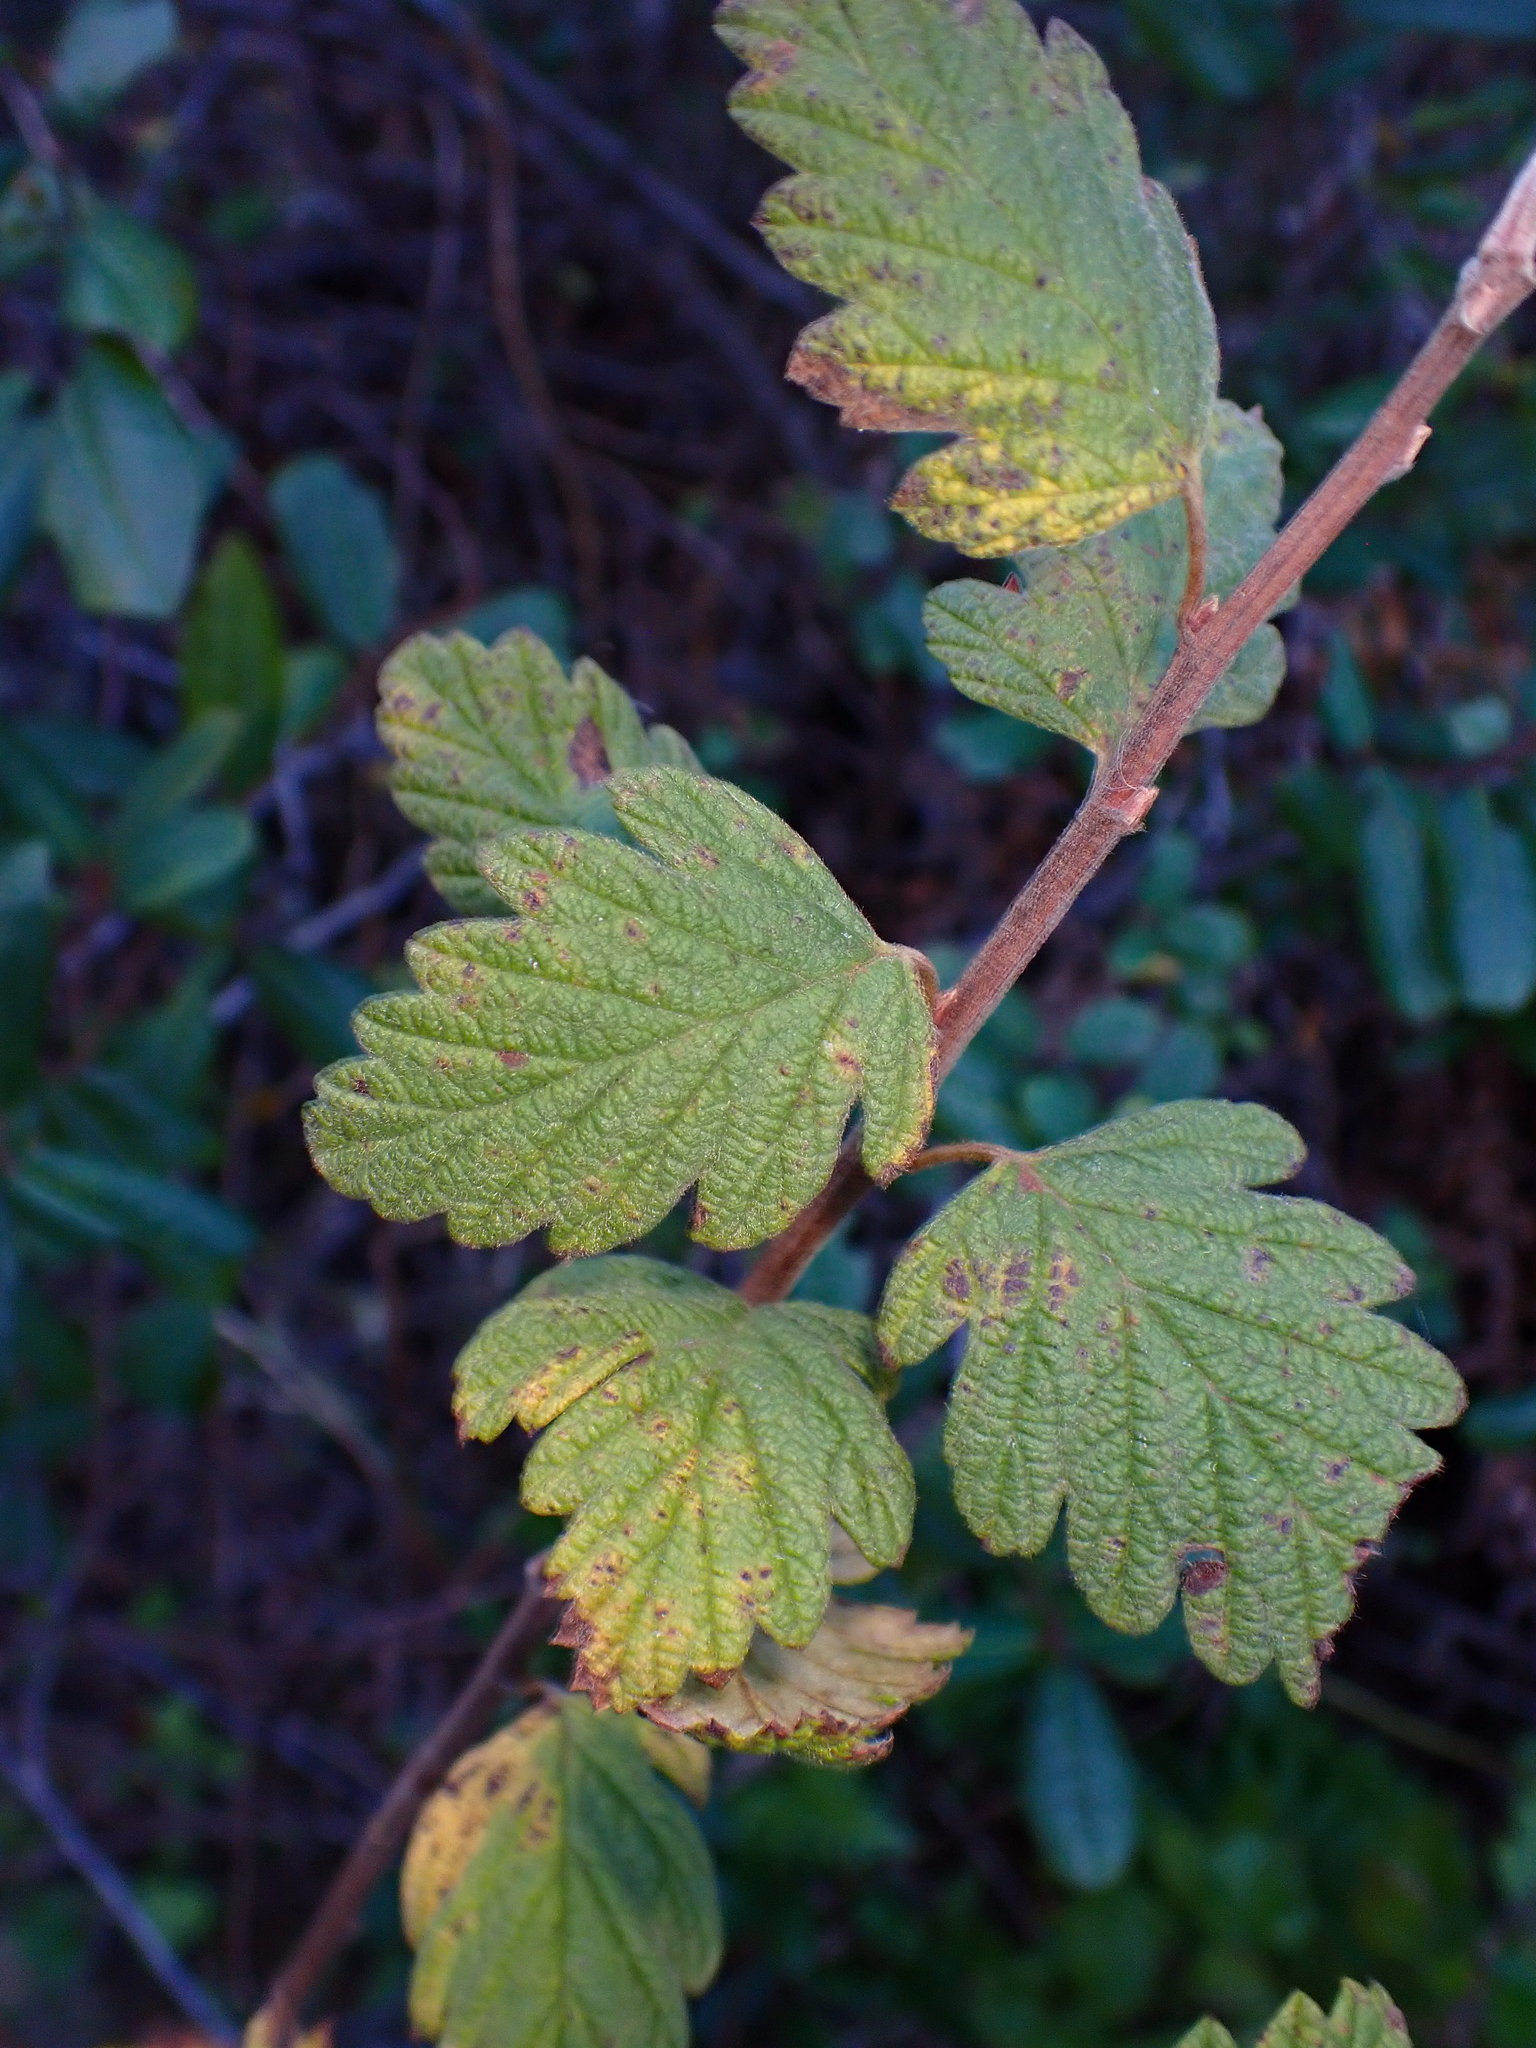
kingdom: Plantae
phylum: Tracheophyta
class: Magnoliopsida
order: Rosales
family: Rosaceae
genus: Holodiscus
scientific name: Holodiscus discolor
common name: Oceanspray
